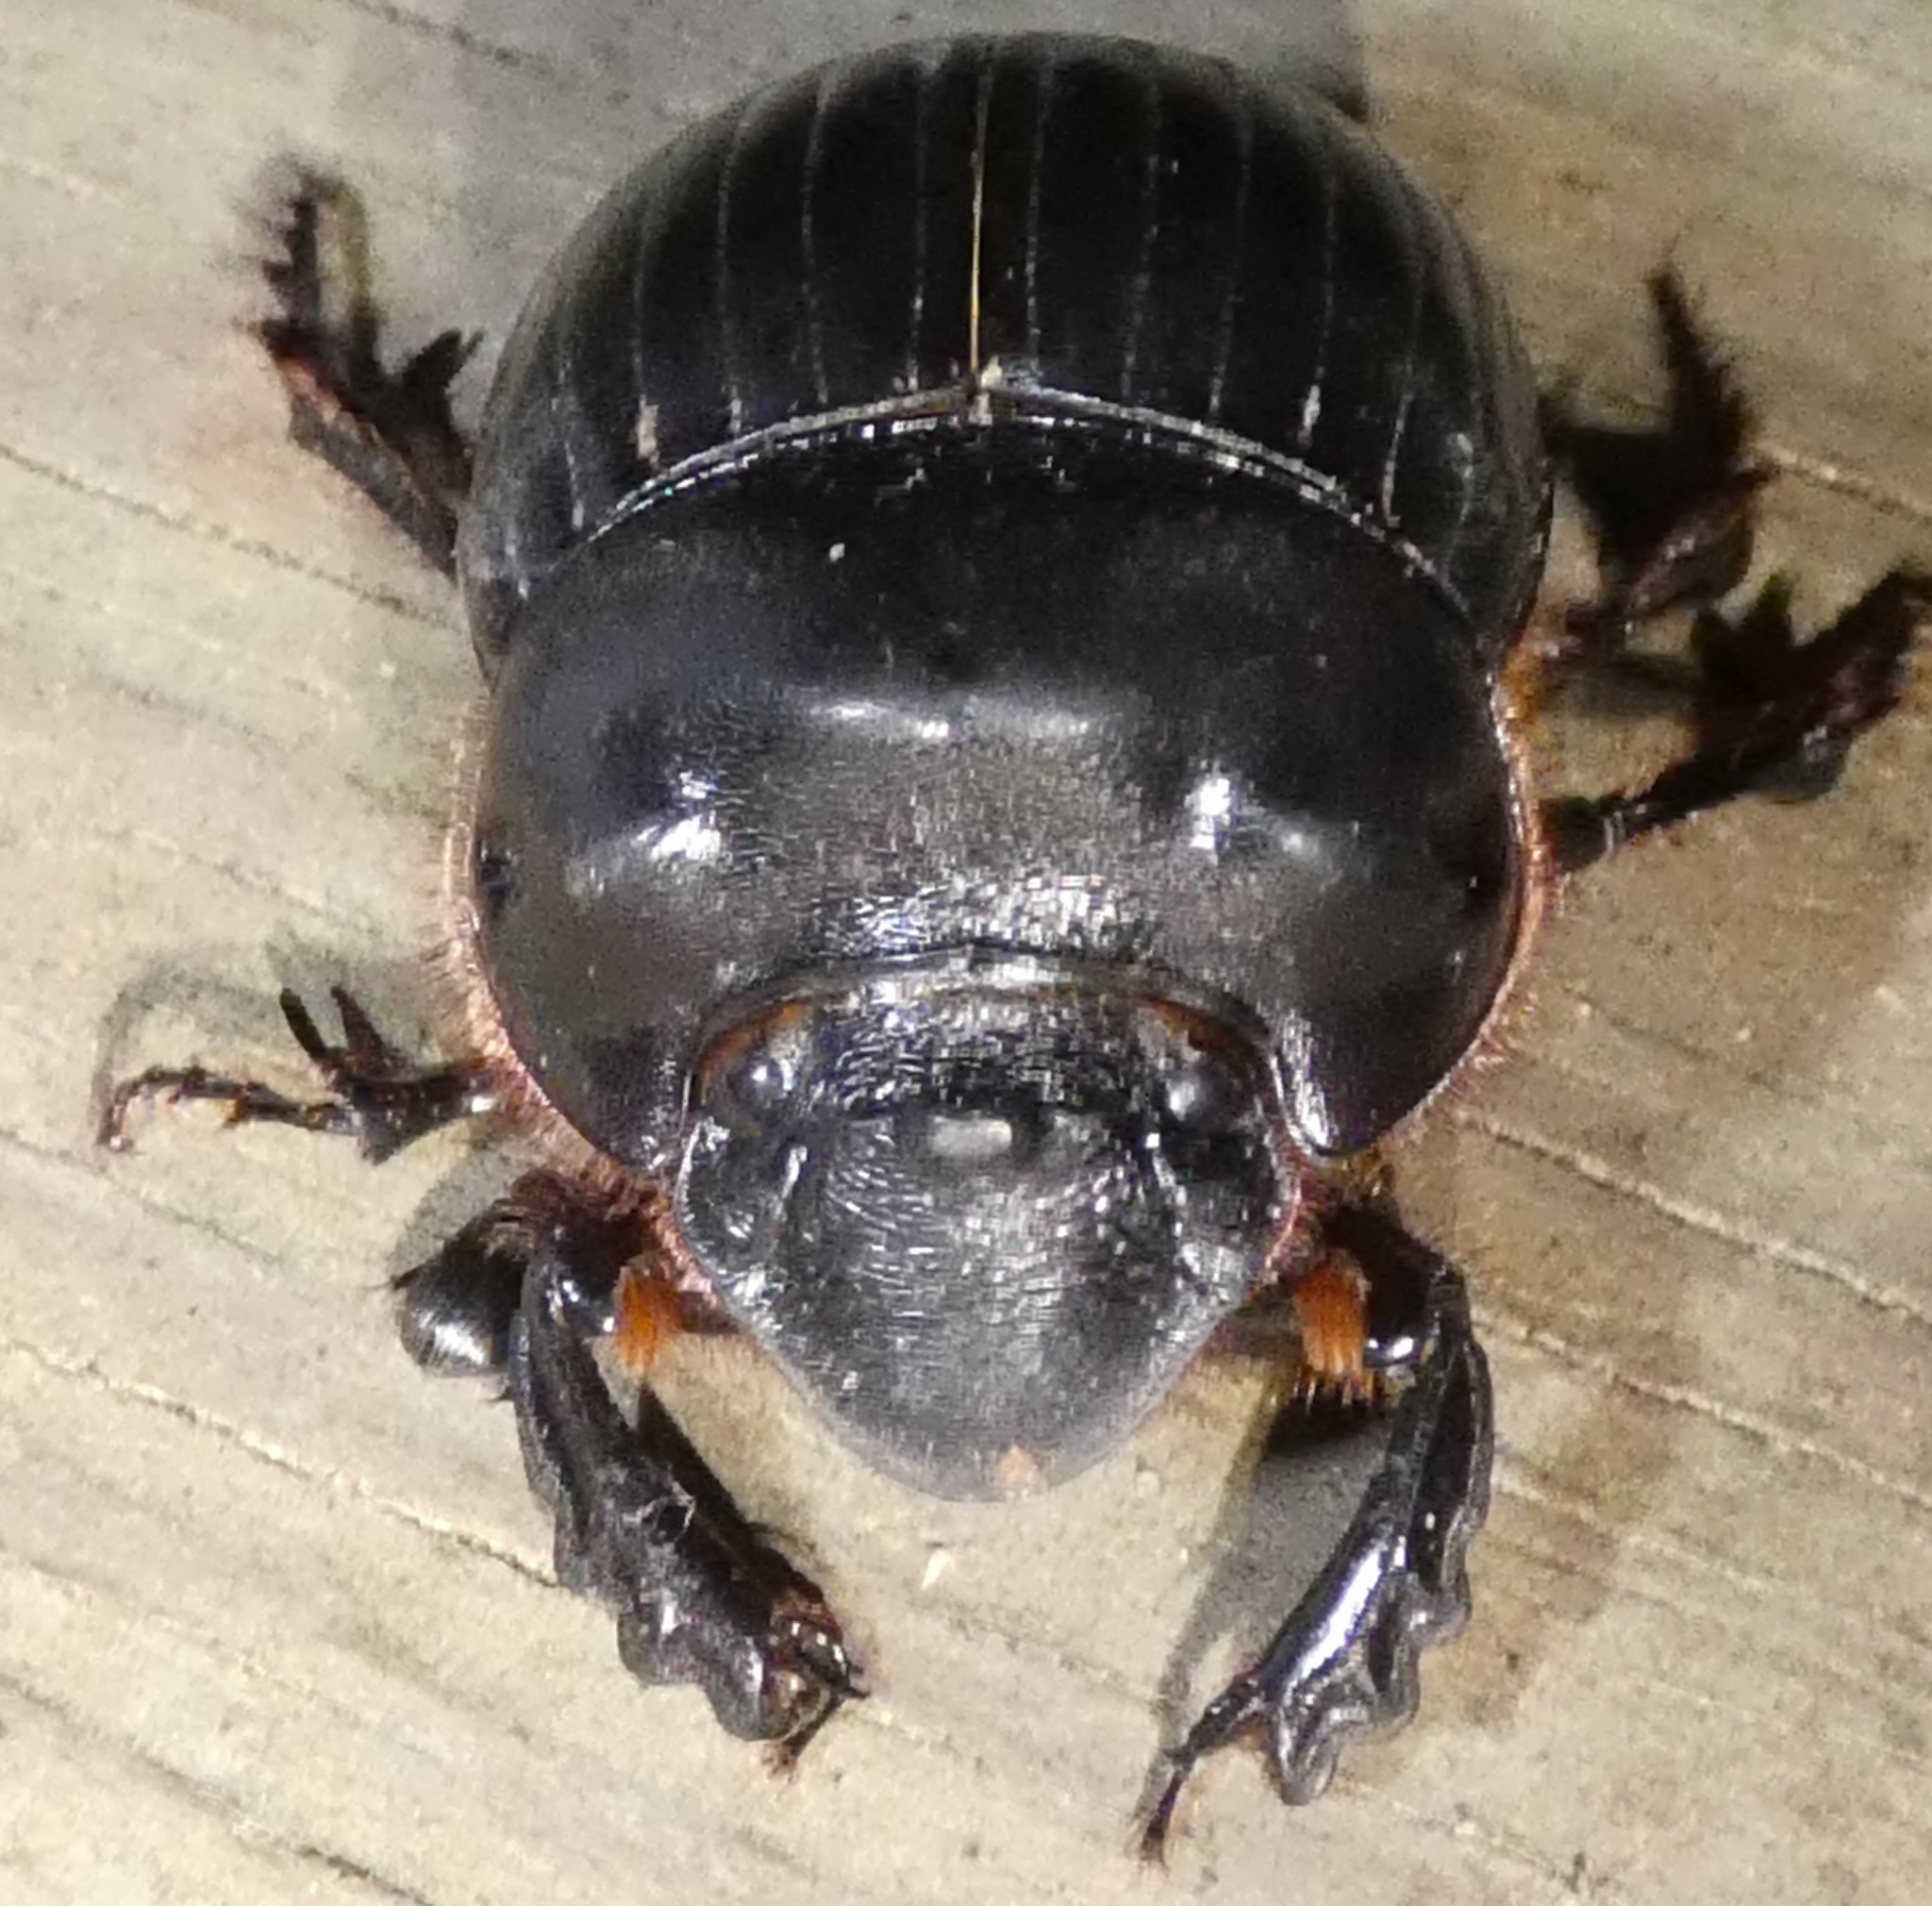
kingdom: Animalia
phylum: Arthropoda
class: Insecta
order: Coleoptera
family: Scarabaeidae
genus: Dichotomius
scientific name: Dichotomius carolinus
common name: Carolina copris
